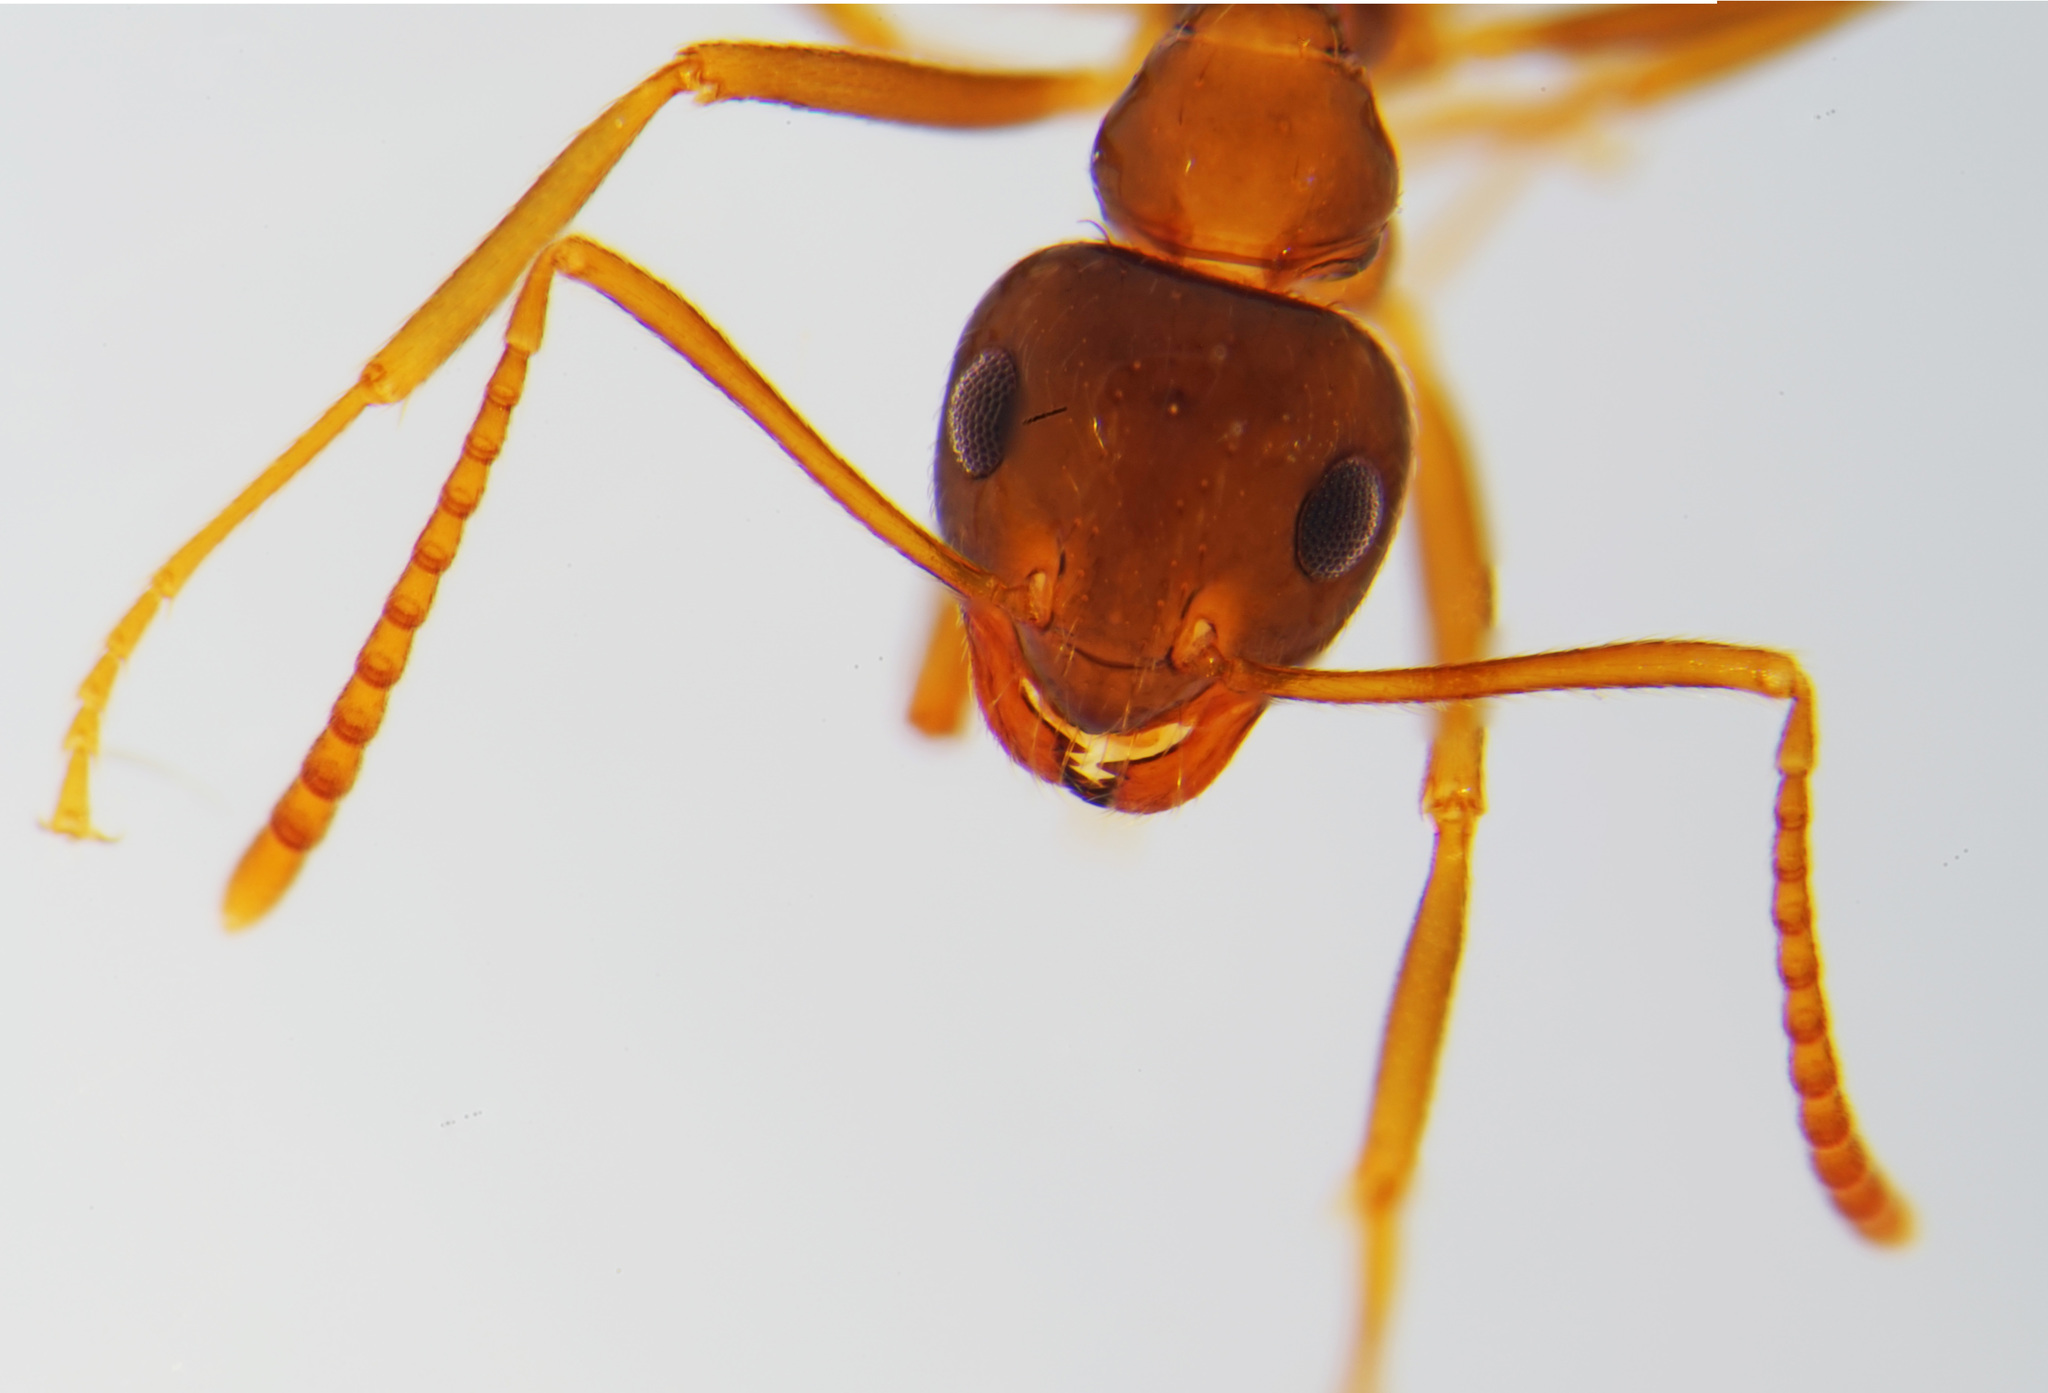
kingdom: Animalia
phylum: Arthropoda
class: Insecta
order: Hymenoptera
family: Formicidae
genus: Prenolepis
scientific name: Prenolepis nitens
